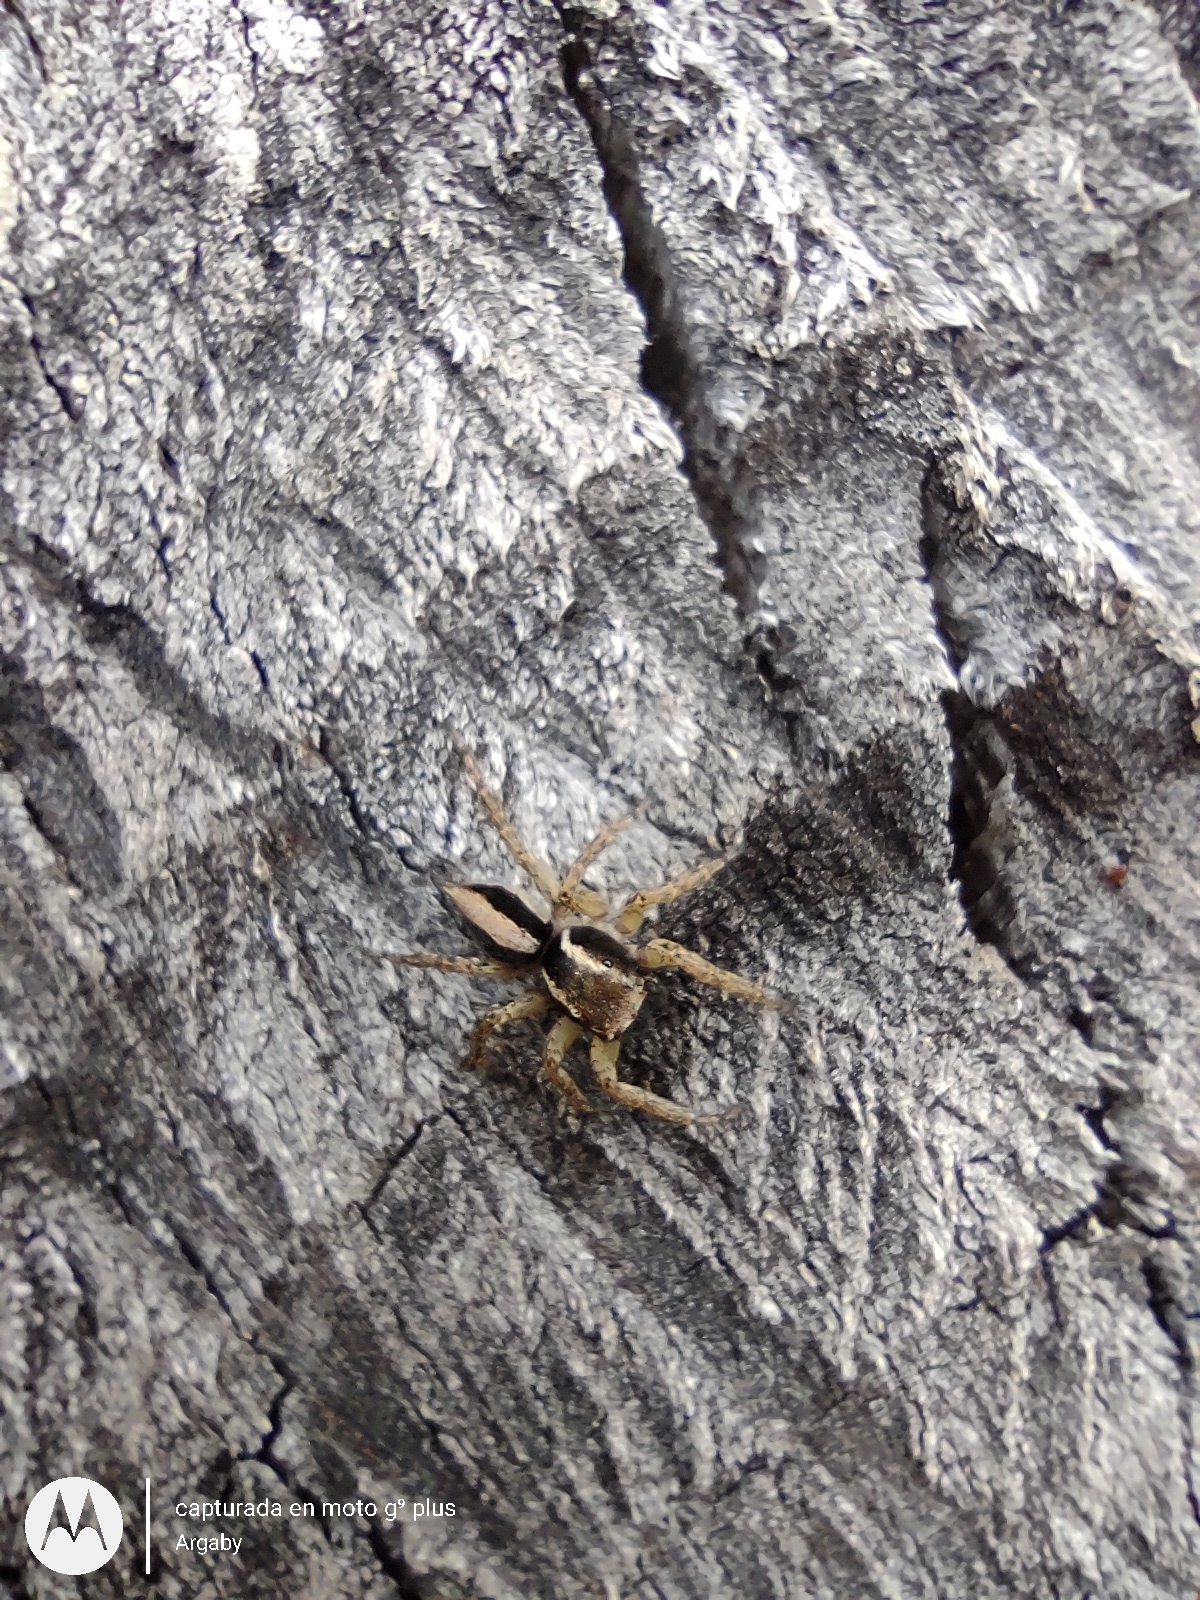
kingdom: Animalia
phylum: Arthropoda
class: Arachnida
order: Araneae
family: Salticidae
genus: Aphirape
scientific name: Aphirape
